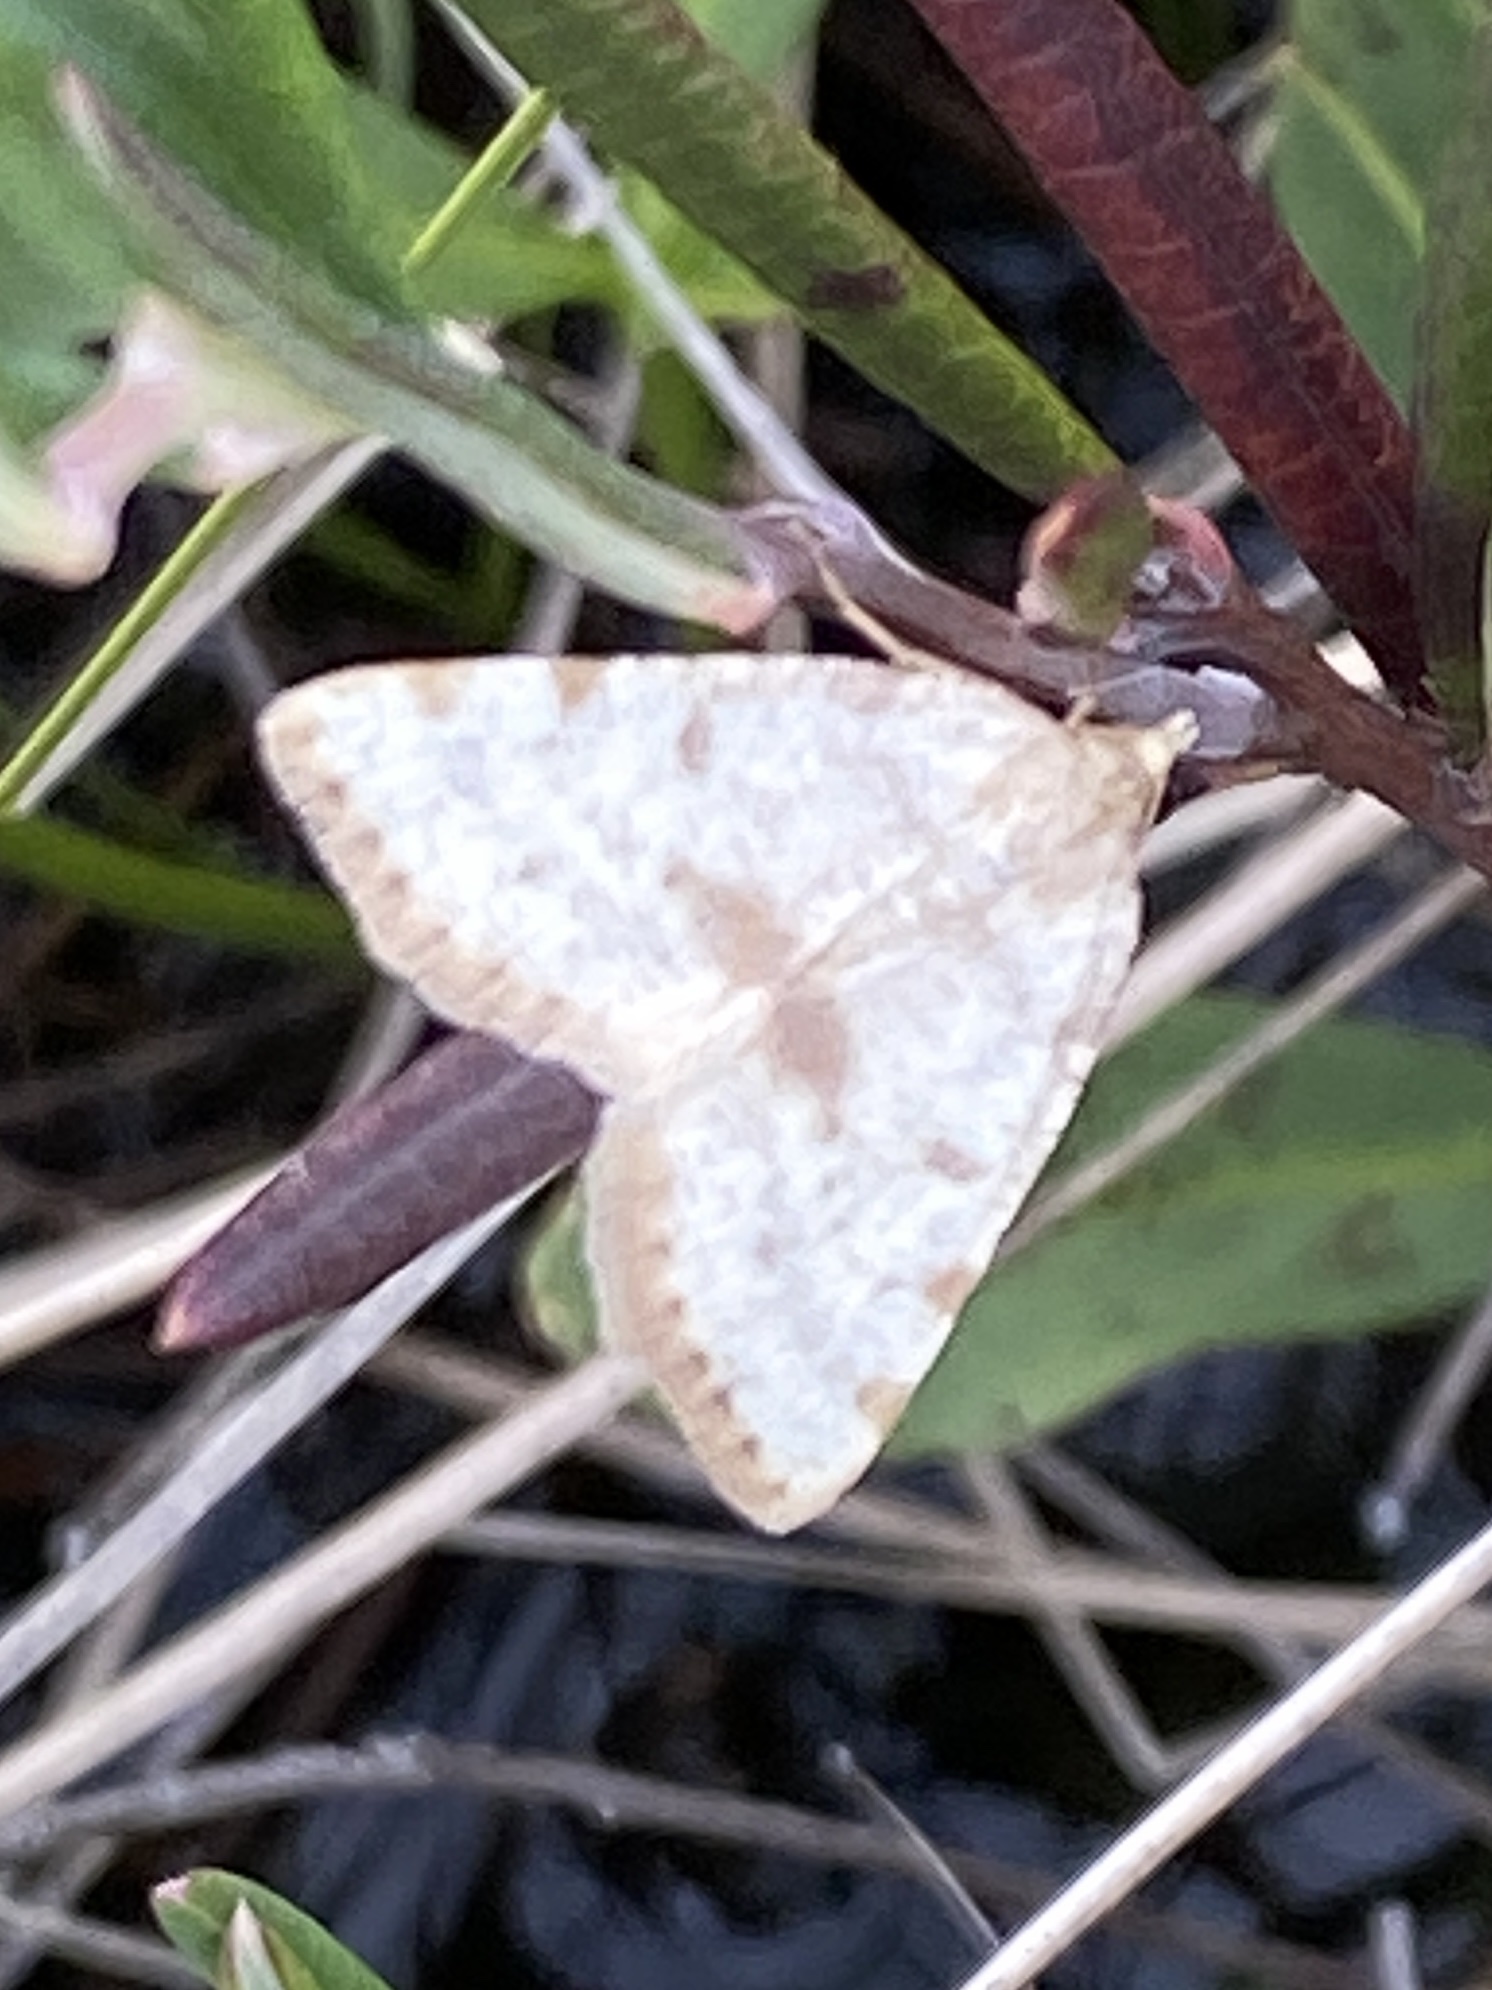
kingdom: Animalia
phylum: Arthropoda
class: Insecta
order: Lepidoptera
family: Geometridae
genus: Macaria
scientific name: Macaria sulphurea
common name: Sulphur angle
